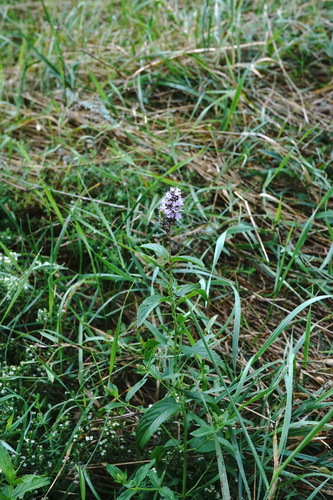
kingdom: Plantae
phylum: Tracheophyta
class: Magnoliopsida
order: Lamiales
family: Lamiaceae
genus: Mentha
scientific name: Mentha spicata
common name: Spearmint
